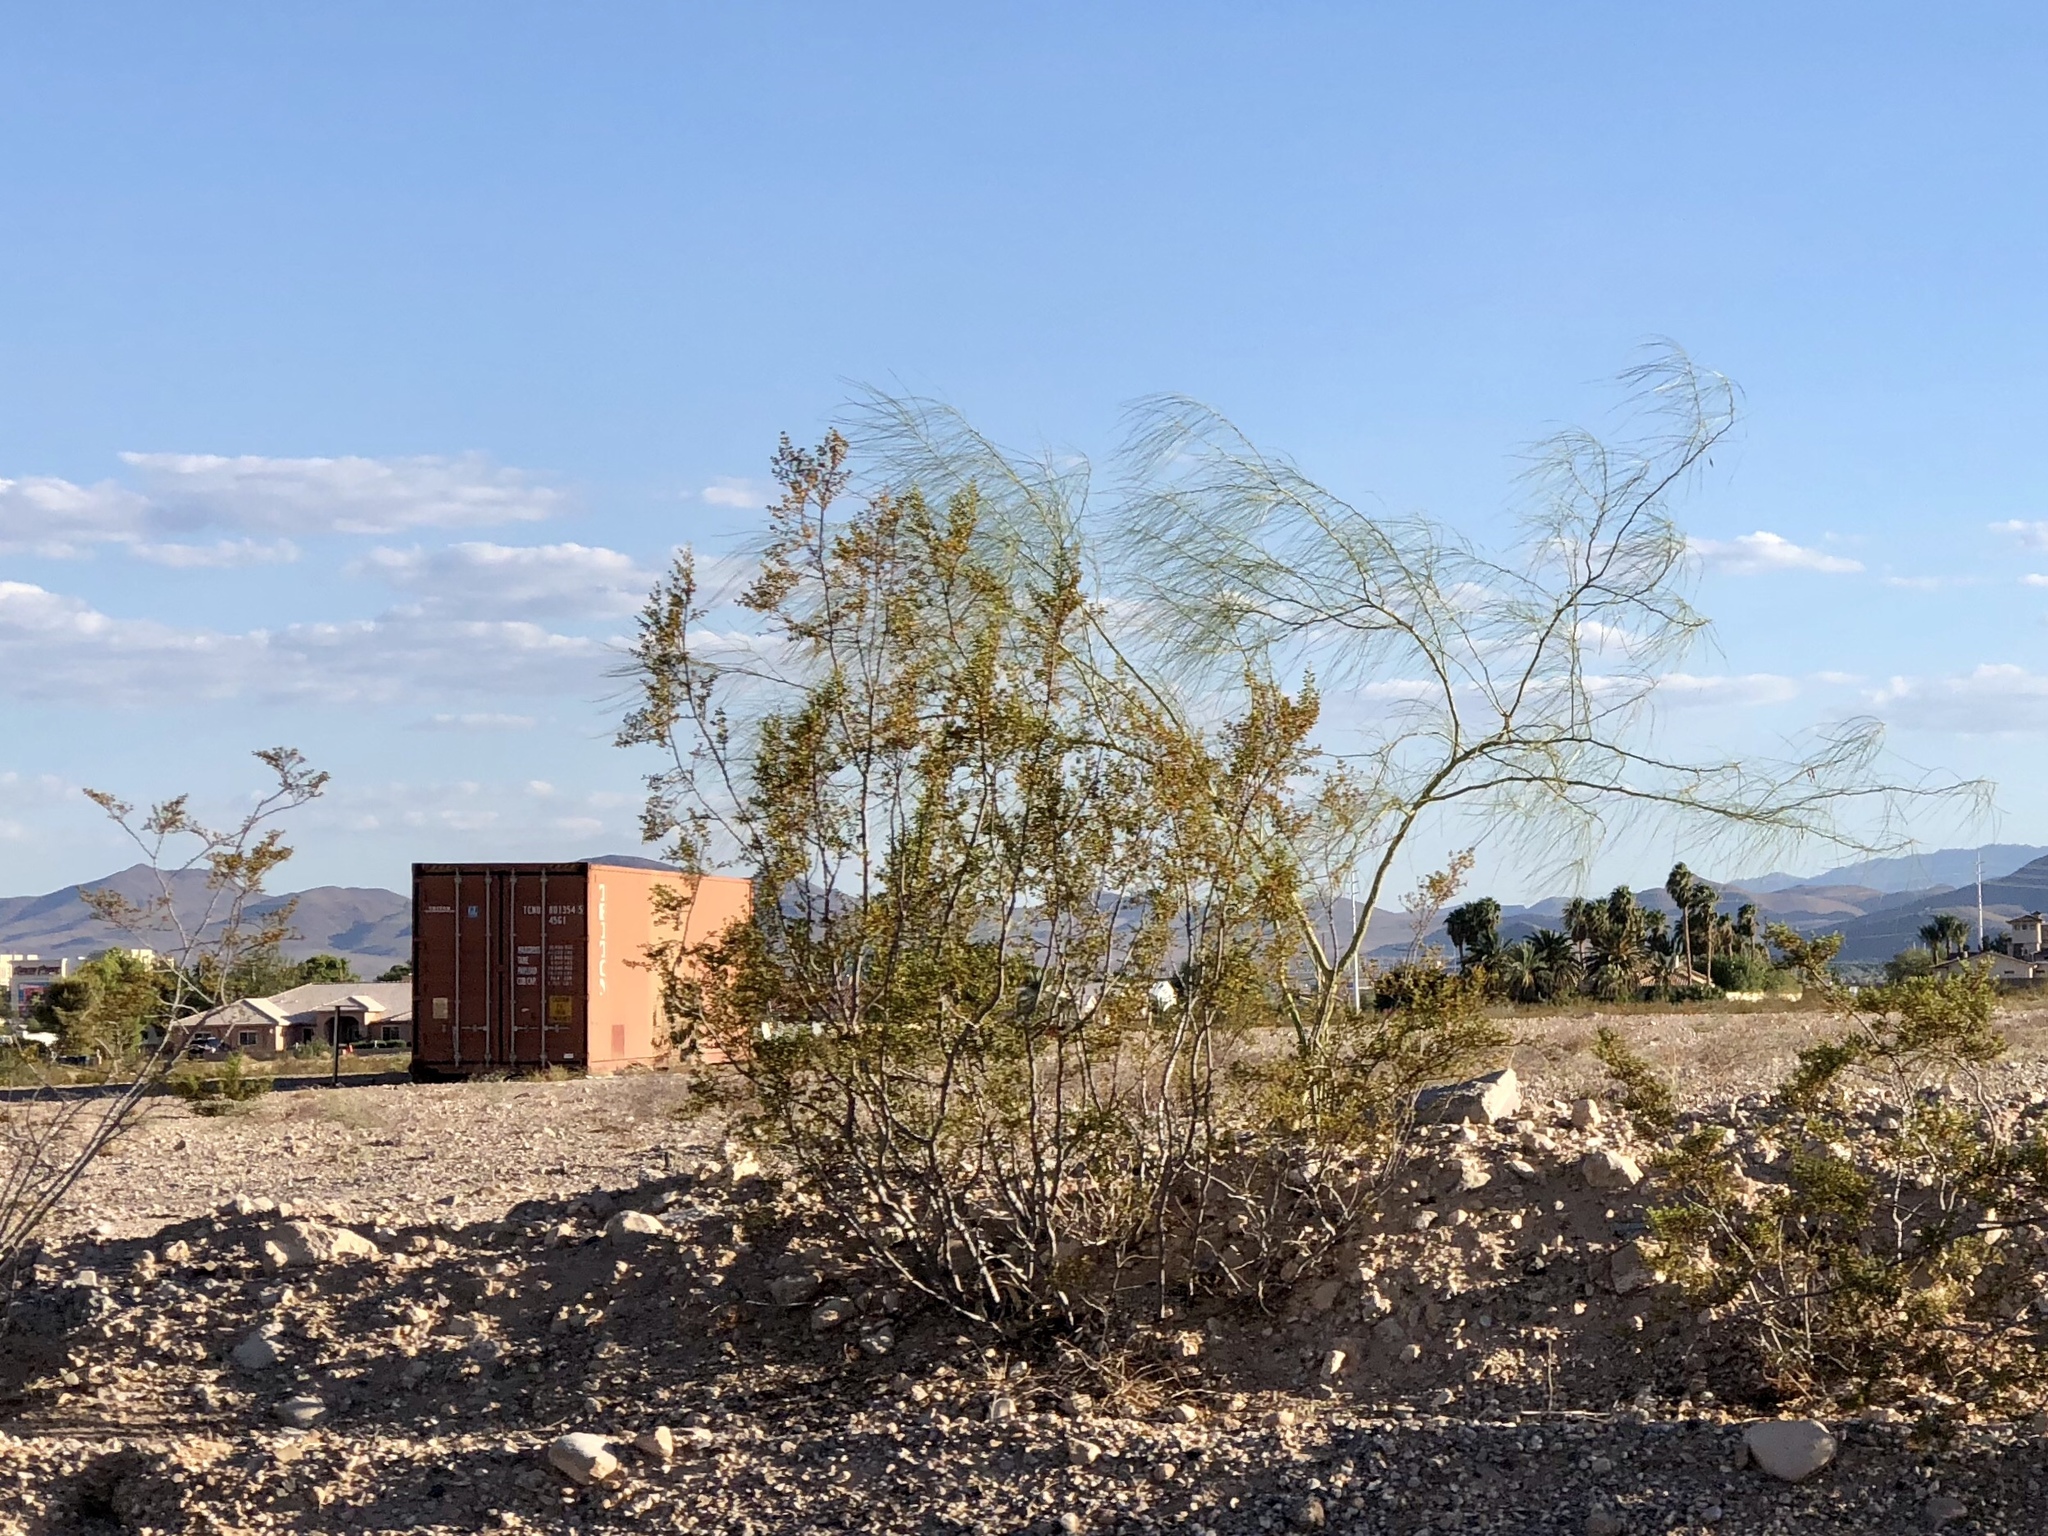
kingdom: Plantae
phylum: Tracheophyta
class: Magnoliopsida
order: Zygophyllales
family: Zygophyllaceae
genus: Larrea
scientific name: Larrea tridentata
